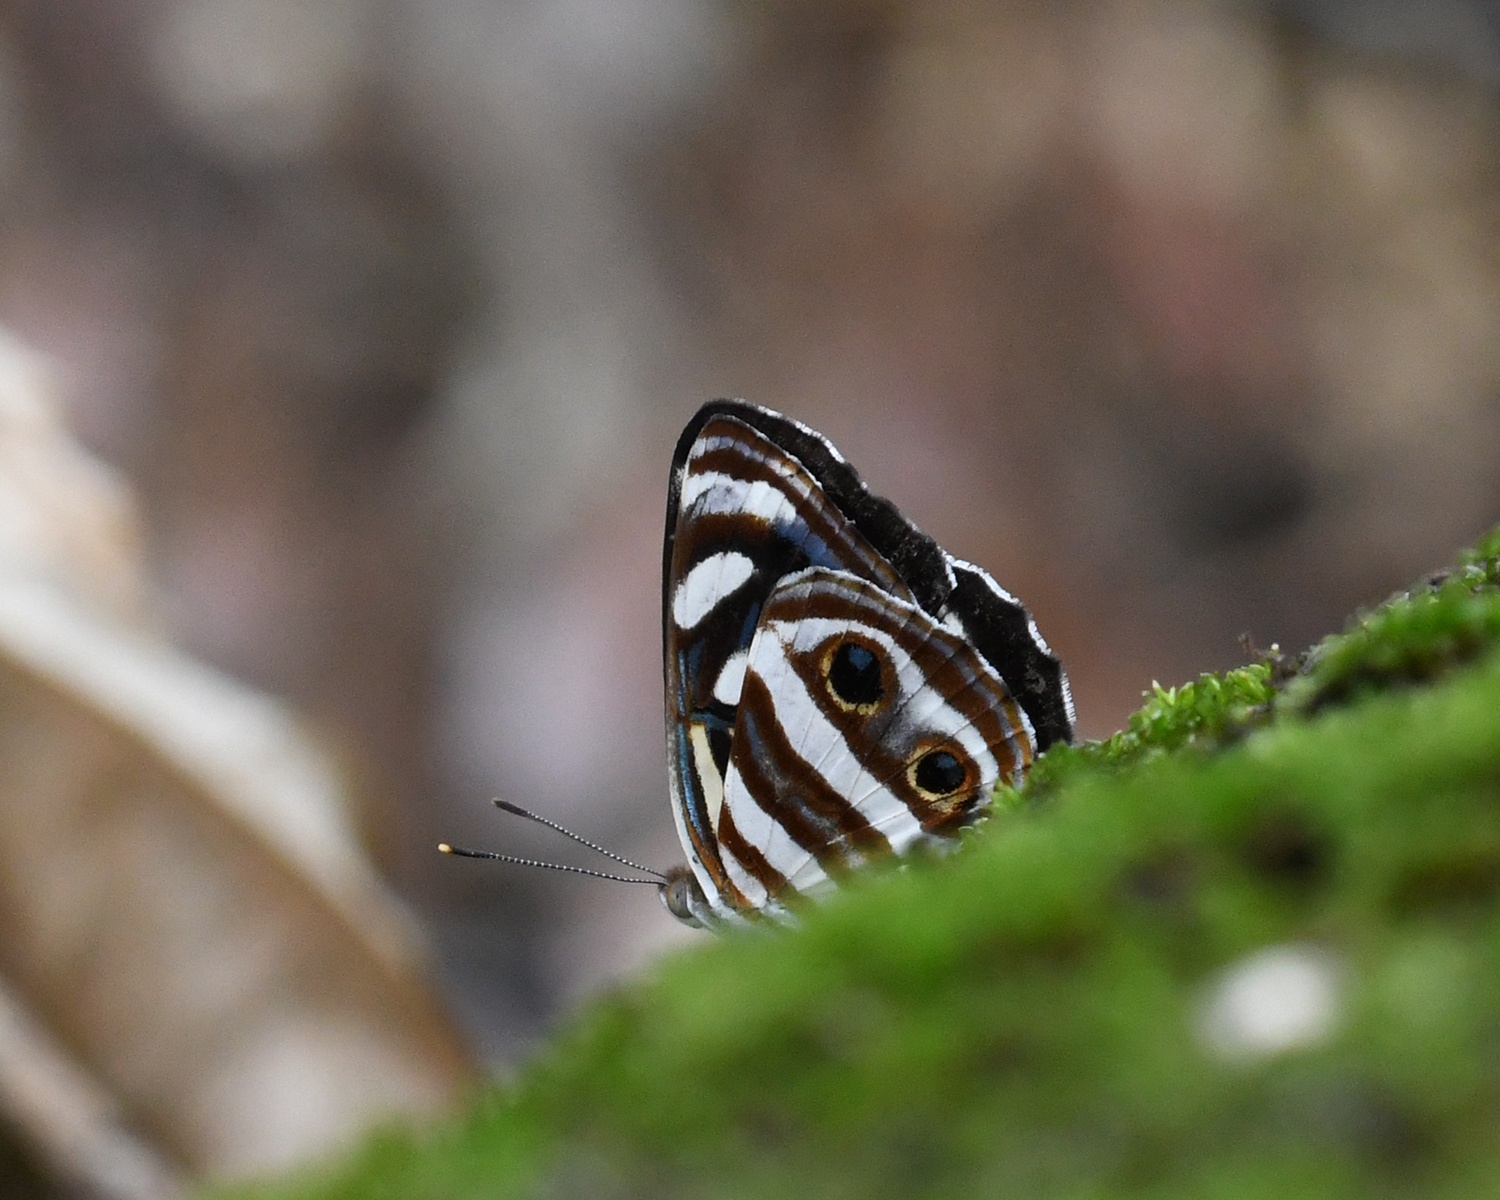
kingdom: Animalia
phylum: Arthropoda
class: Insecta
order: Lepidoptera
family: Nymphalidae
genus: Dynamine
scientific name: Dynamine mylitta
